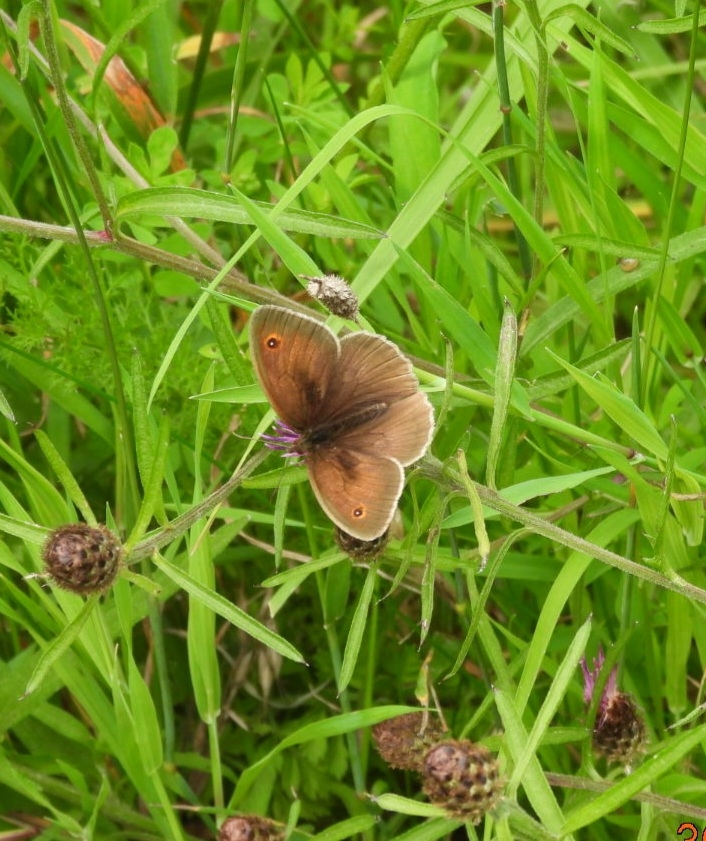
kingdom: Animalia
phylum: Arthropoda
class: Insecta
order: Lepidoptera
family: Nymphalidae
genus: Maniola
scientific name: Maniola jurtina
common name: Meadow brown
